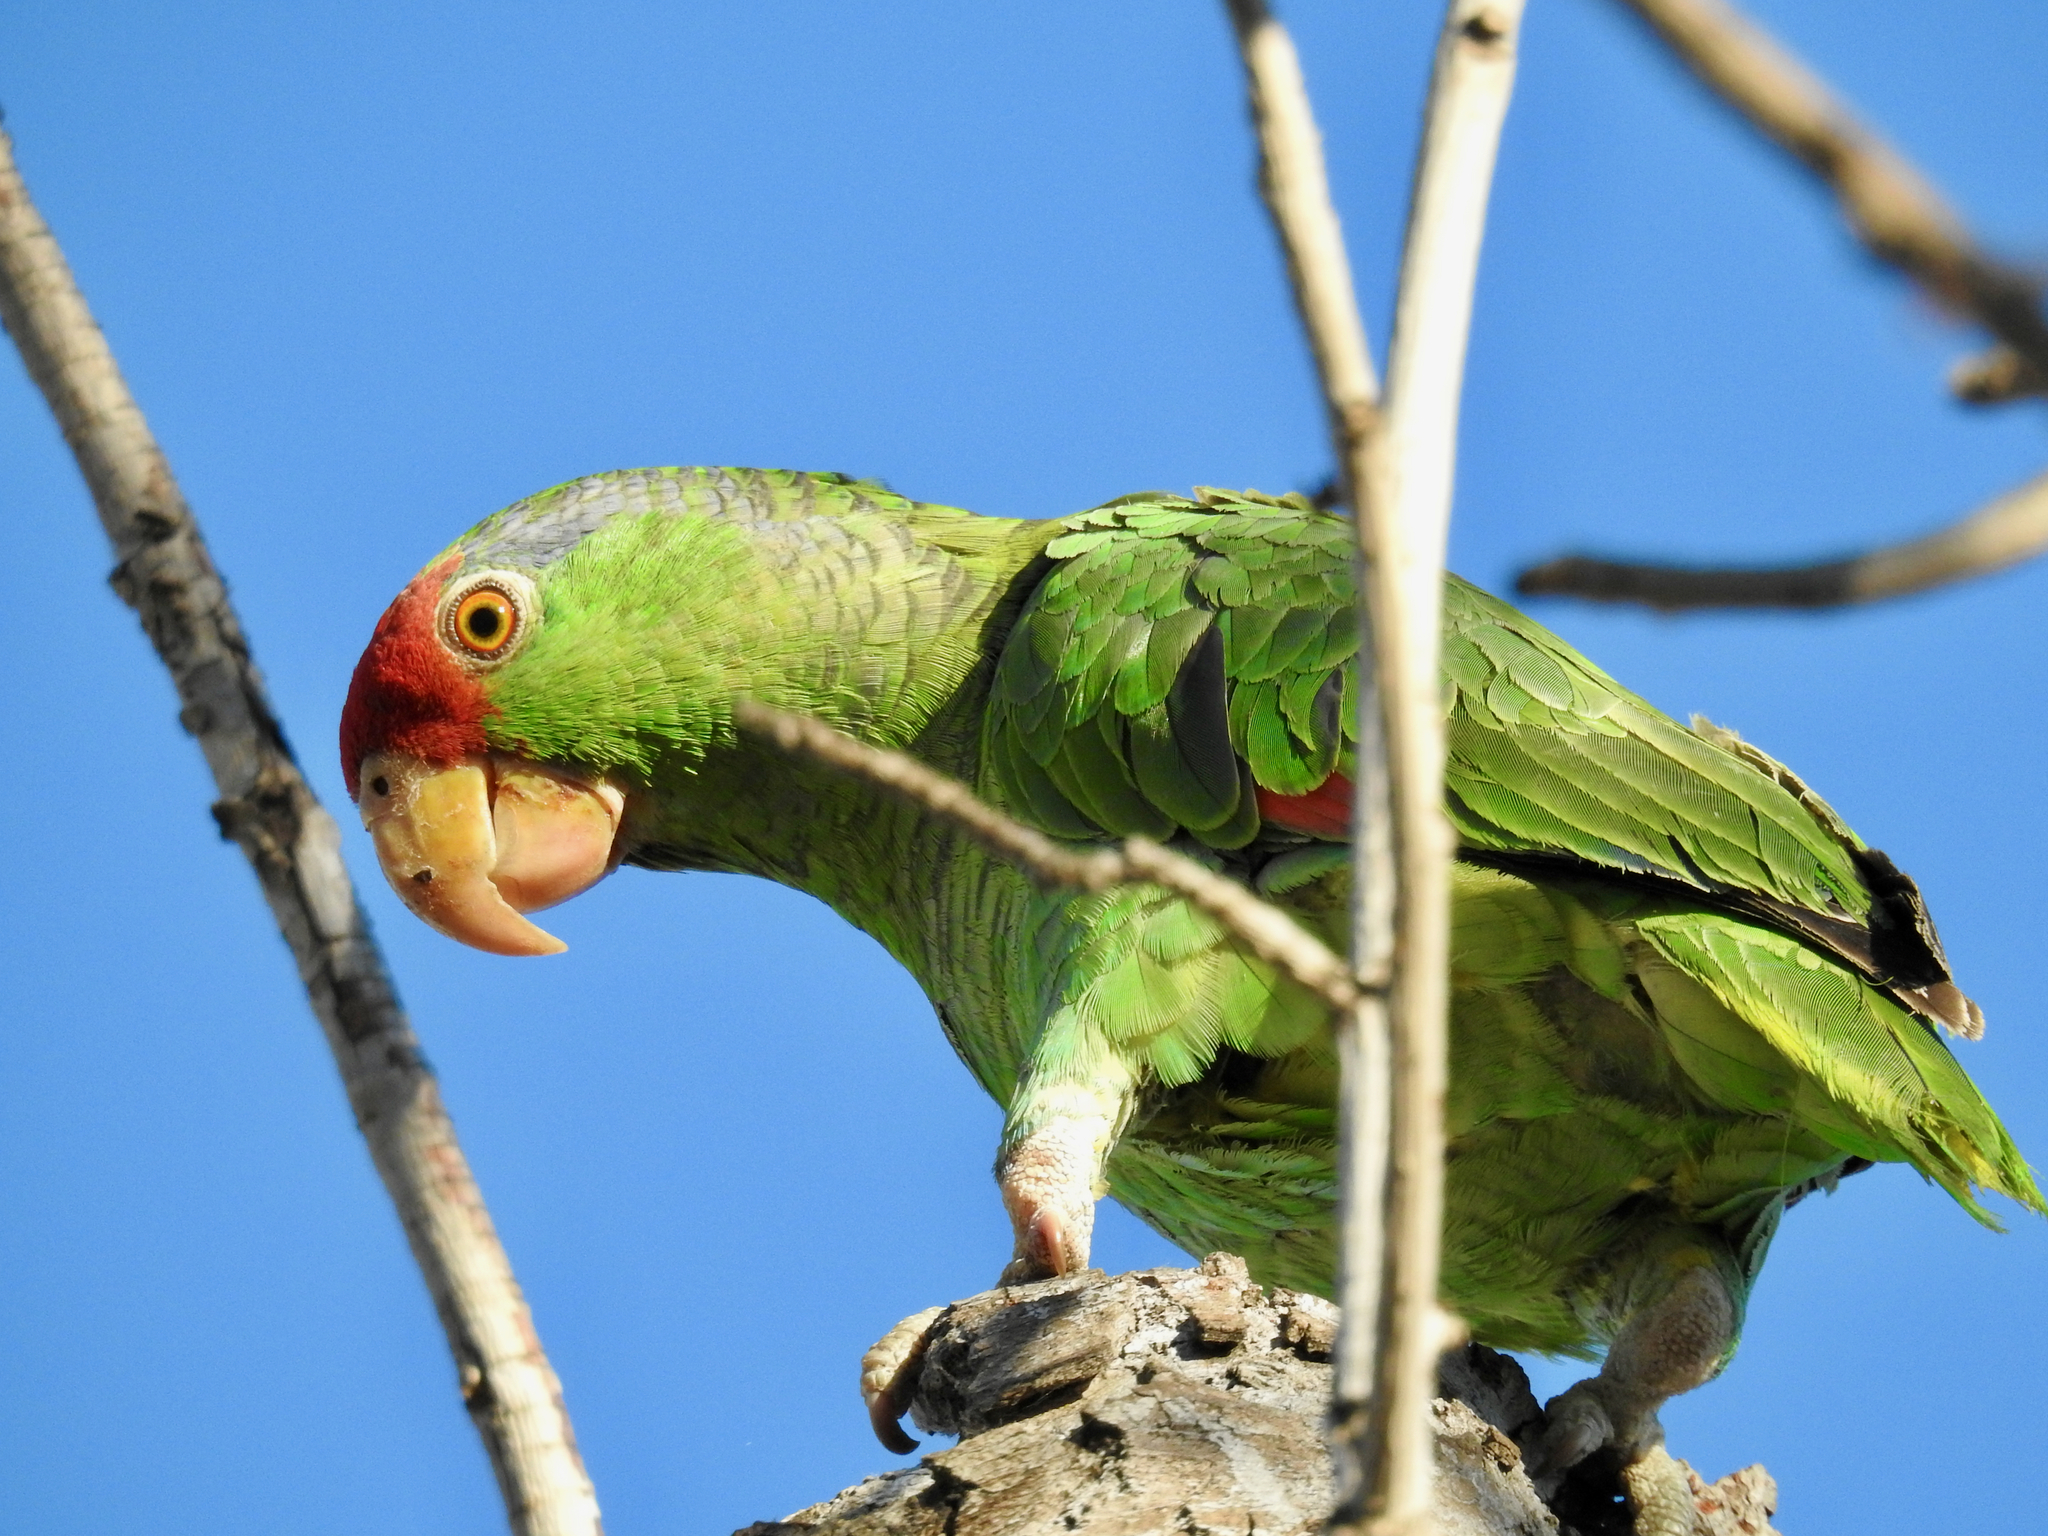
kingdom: Animalia
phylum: Chordata
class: Aves
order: Psittaciformes
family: Psittacidae
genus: Amazona
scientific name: Amazona viridigenalis
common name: Red-crowned amazon
